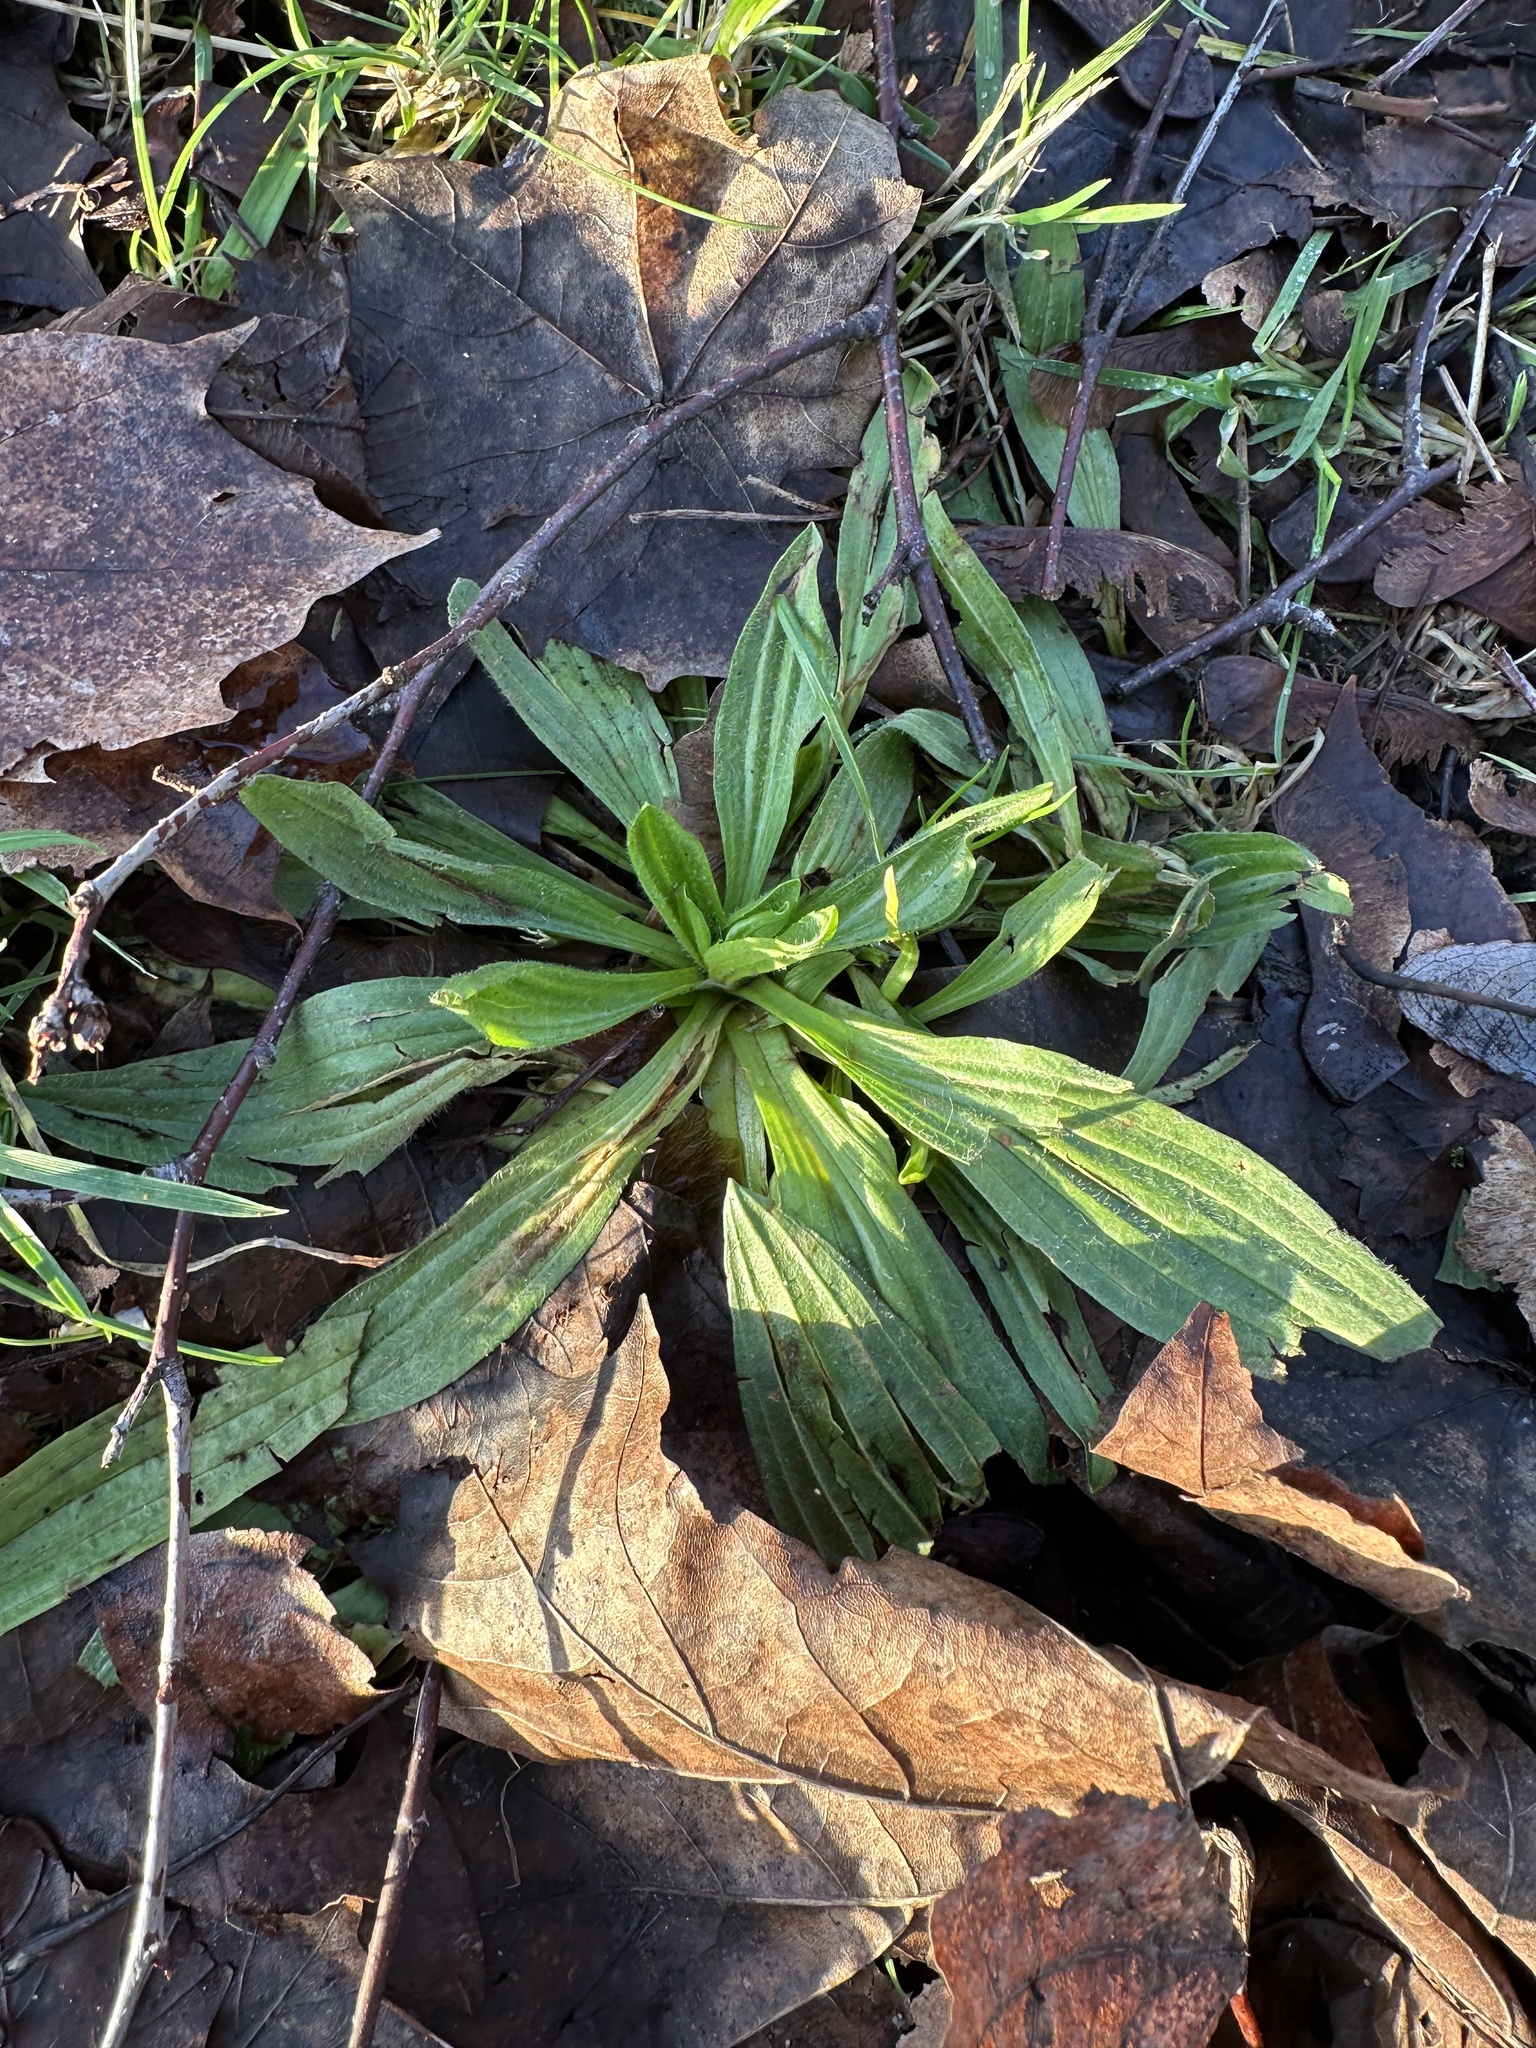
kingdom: Plantae
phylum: Tracheophyta
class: Magnoliopsida
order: Lamiales
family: Plantaginaceae
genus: Plantago
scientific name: Plantago lanceolata
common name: Ribwort plantain
